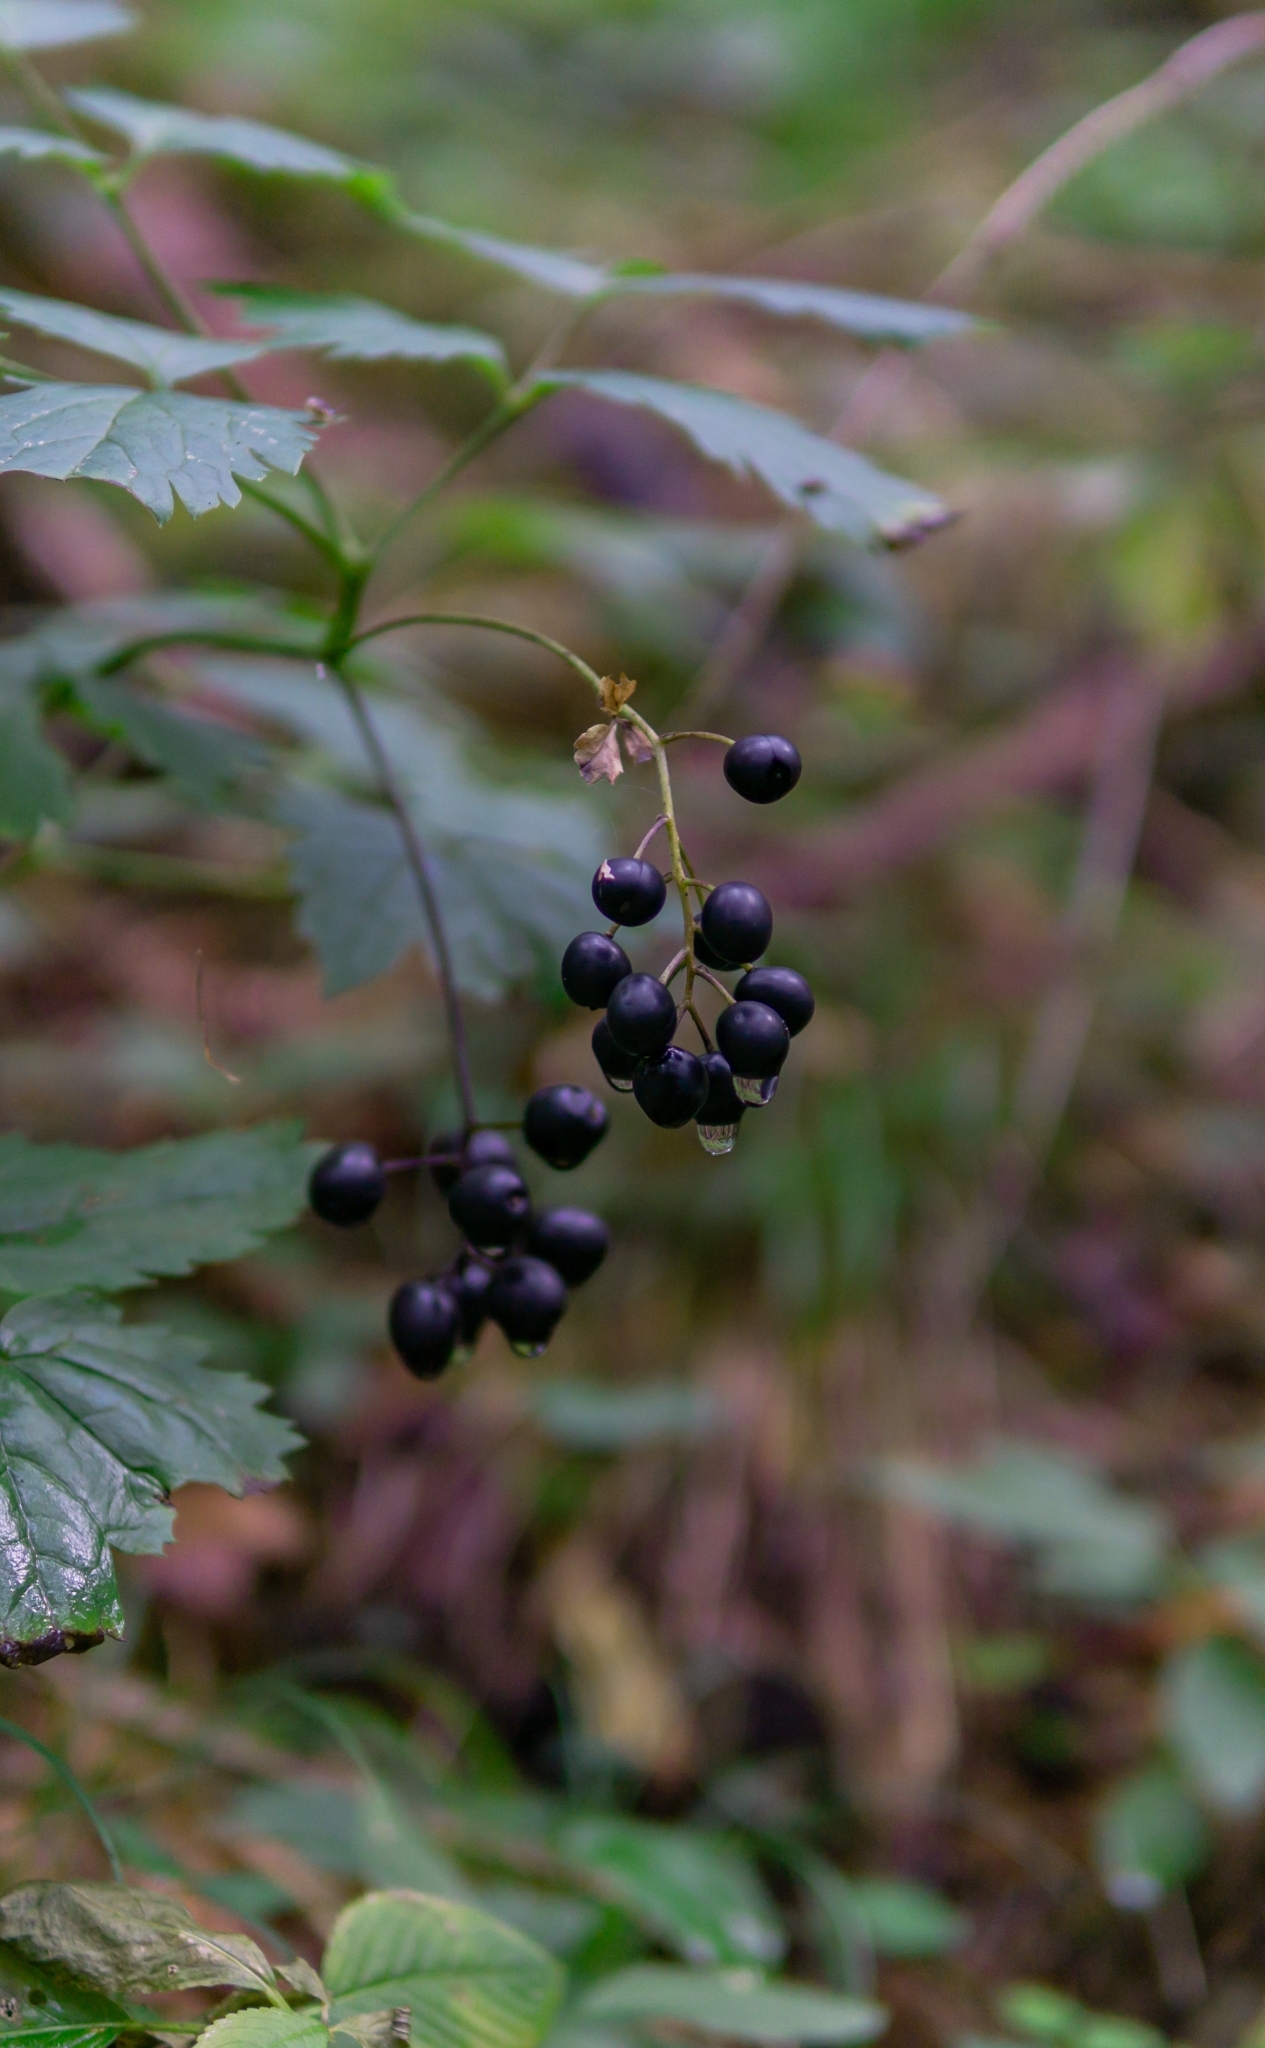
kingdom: Plantae
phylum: Tracheophyta
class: Magnoliopsida
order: Ranunculales
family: Ranunculaceae
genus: Actaea
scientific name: Actaea spicata
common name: Baneberry
